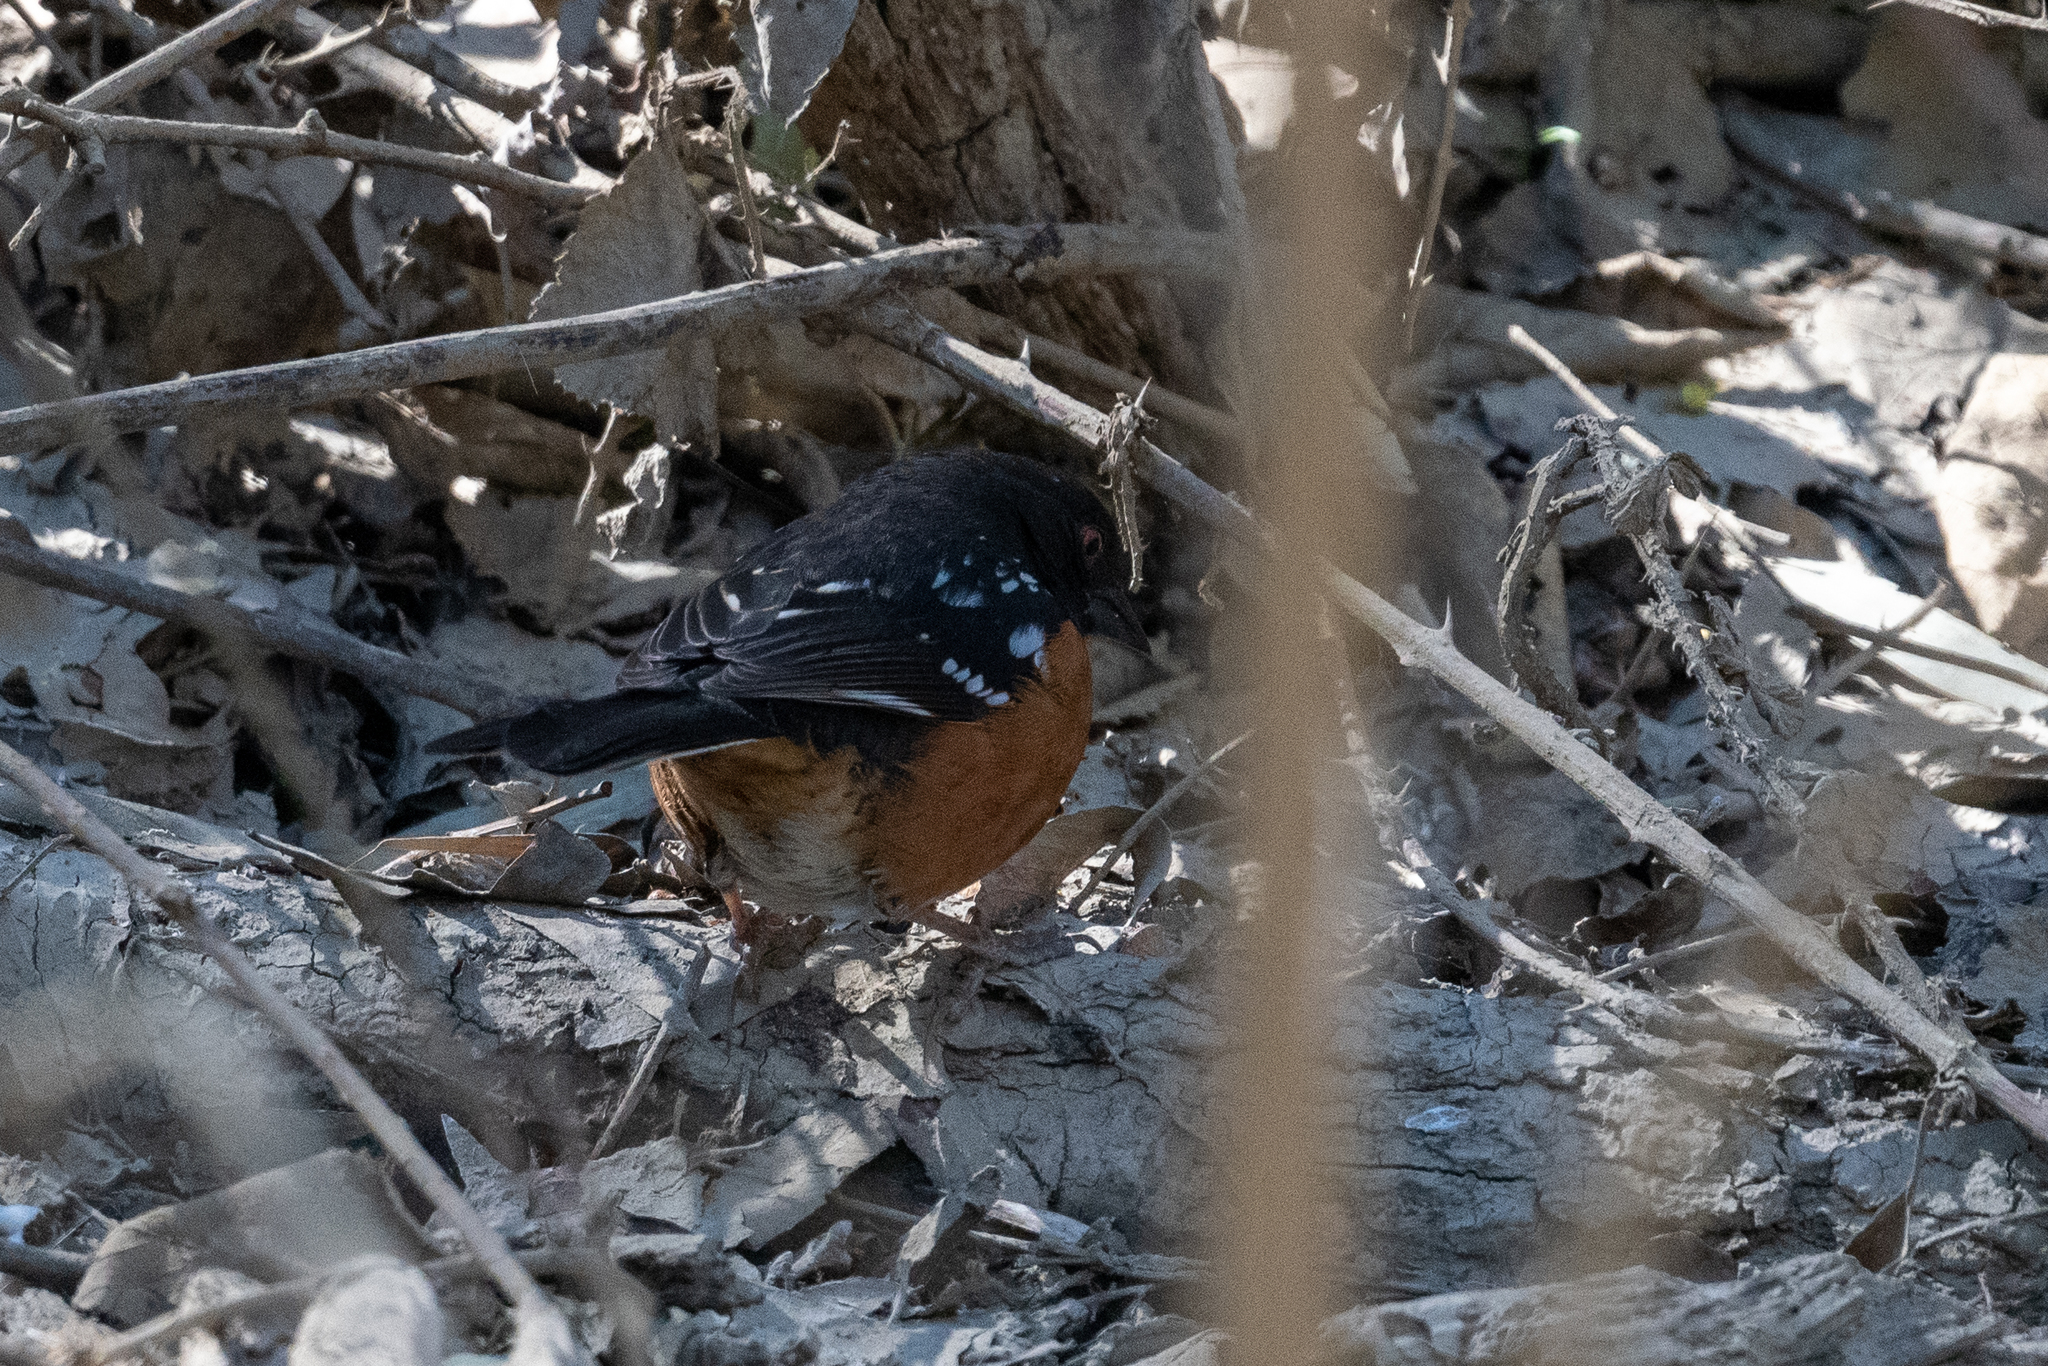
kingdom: Animalia
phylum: Chordata
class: Aves
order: Passeriformes
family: Passerellidae
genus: Pipilo
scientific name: Pipilo maculatus
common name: Spotted towhee
